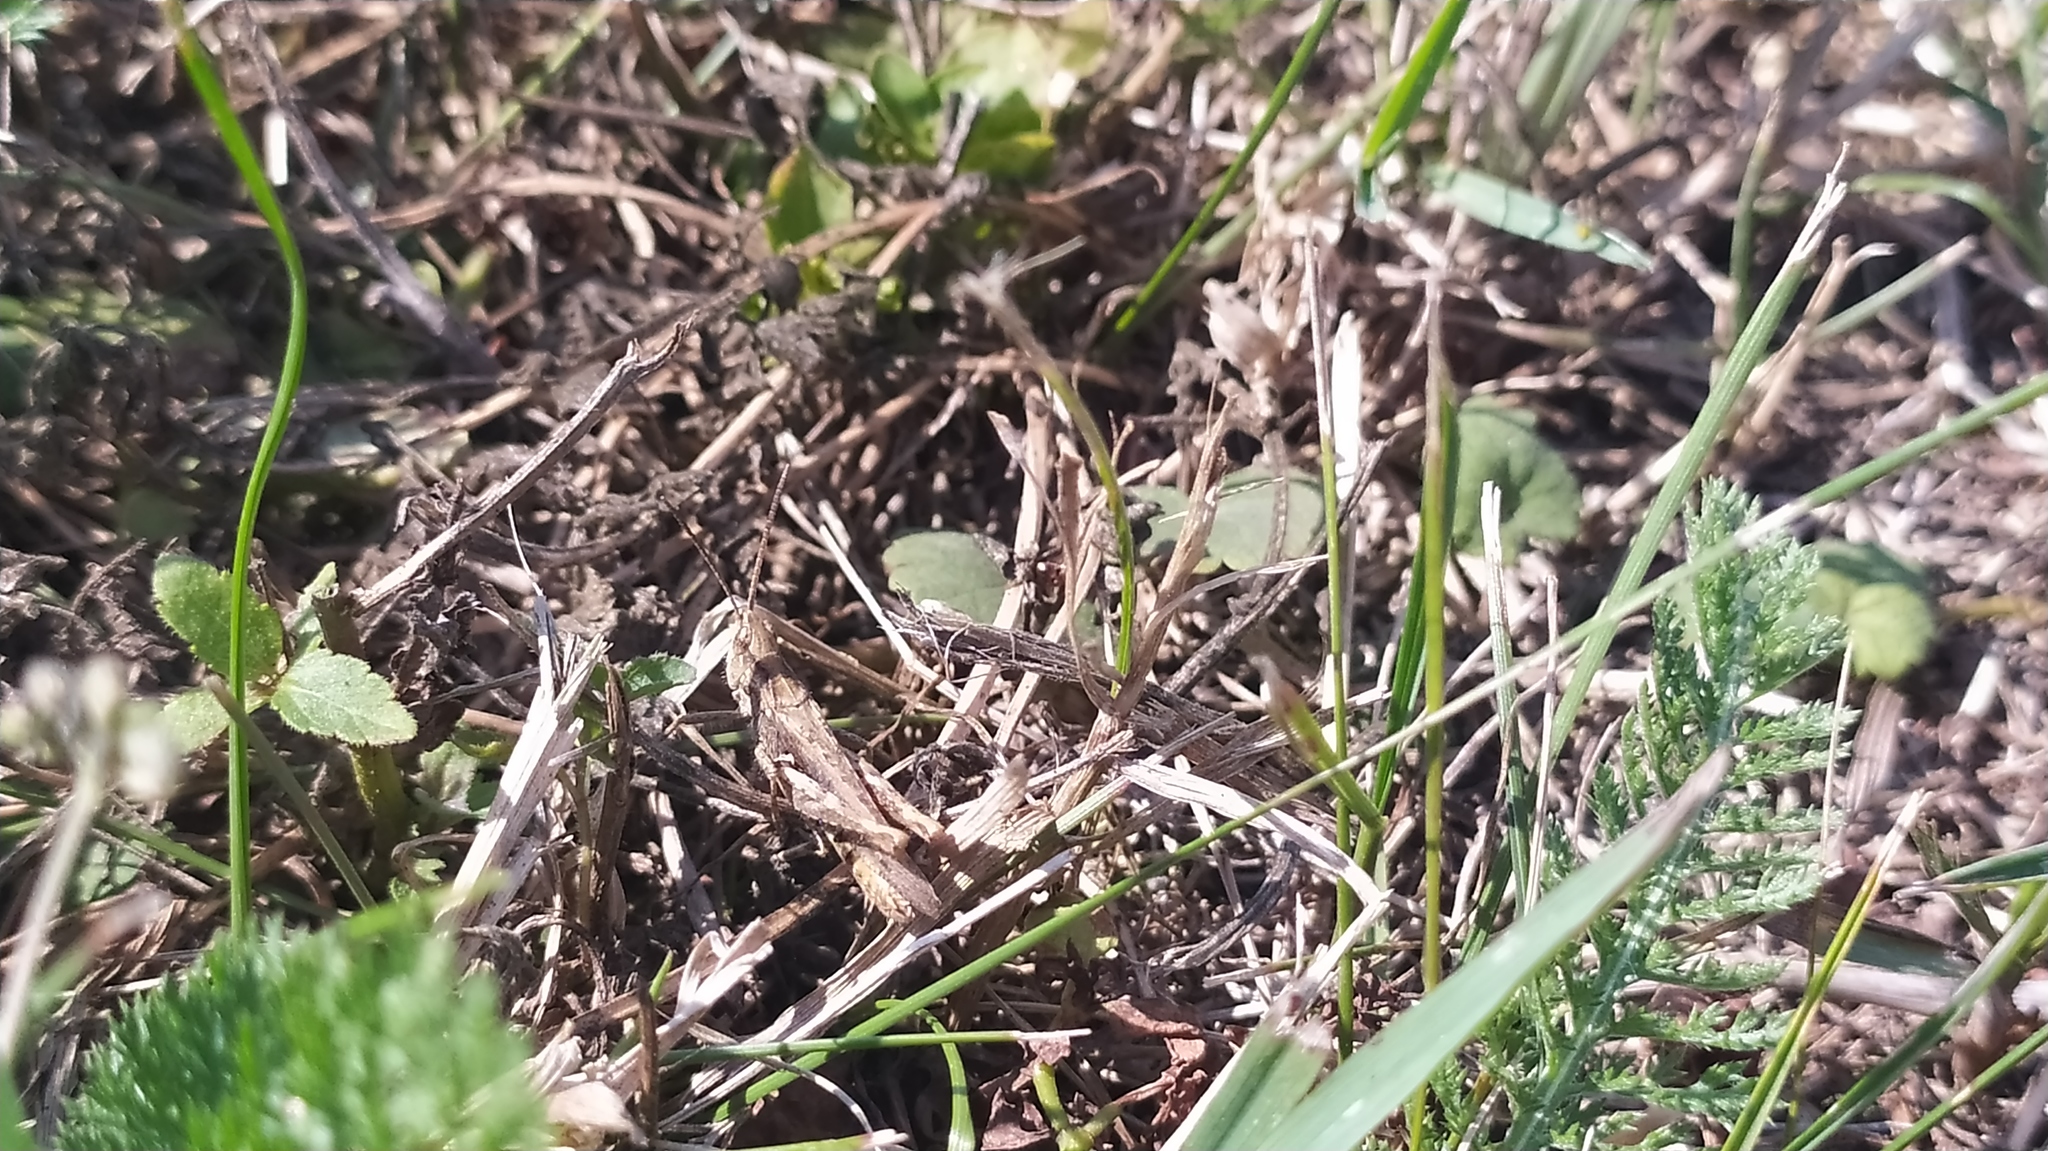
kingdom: Animalia
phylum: Arthropoda
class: Insecta
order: Orthoptera
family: Acrididae
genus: Chorthippus
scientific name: Chorthippus mollis
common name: Lesser field grasshopper
